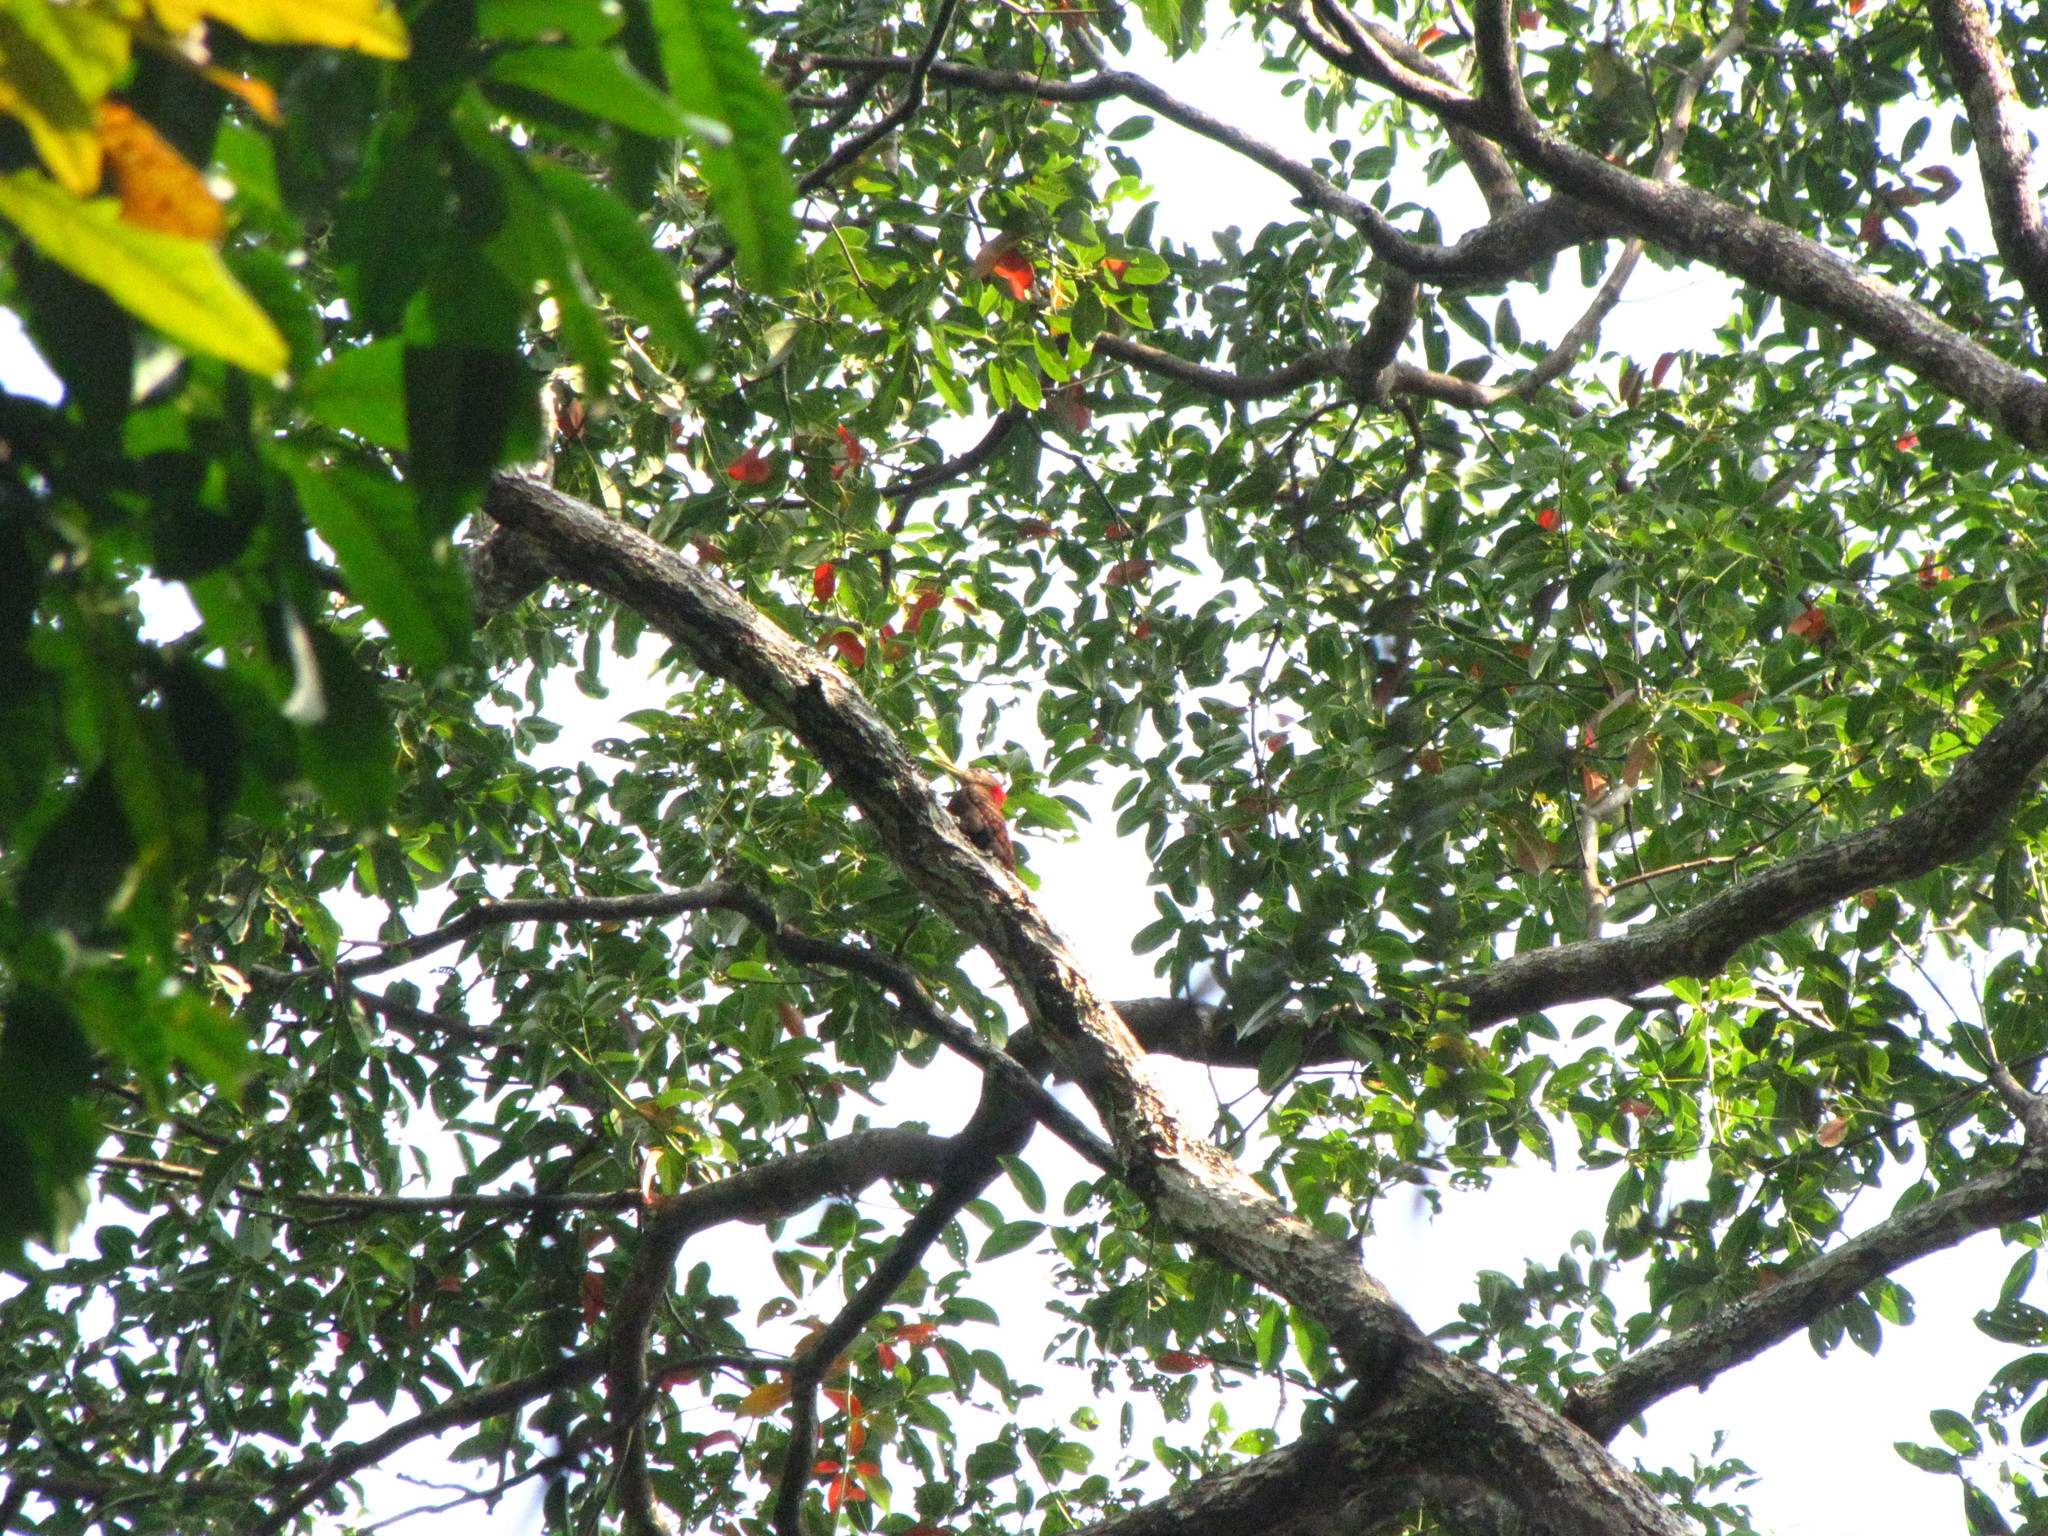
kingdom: Animalia
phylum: Chordata
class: Aves
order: Piciformes
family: Picidae
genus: Blythipicus
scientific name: Blythipicus pyrrhotis
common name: Bay woodpecker
